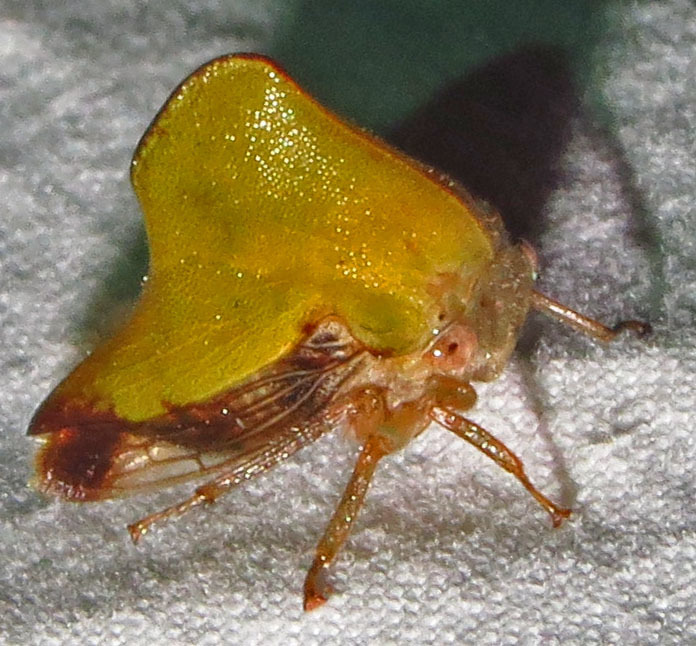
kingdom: Animalia
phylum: Arthropoda
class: Insecta
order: Hemiptera
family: Membracidae
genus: Helonica
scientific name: Helonica excelsa
